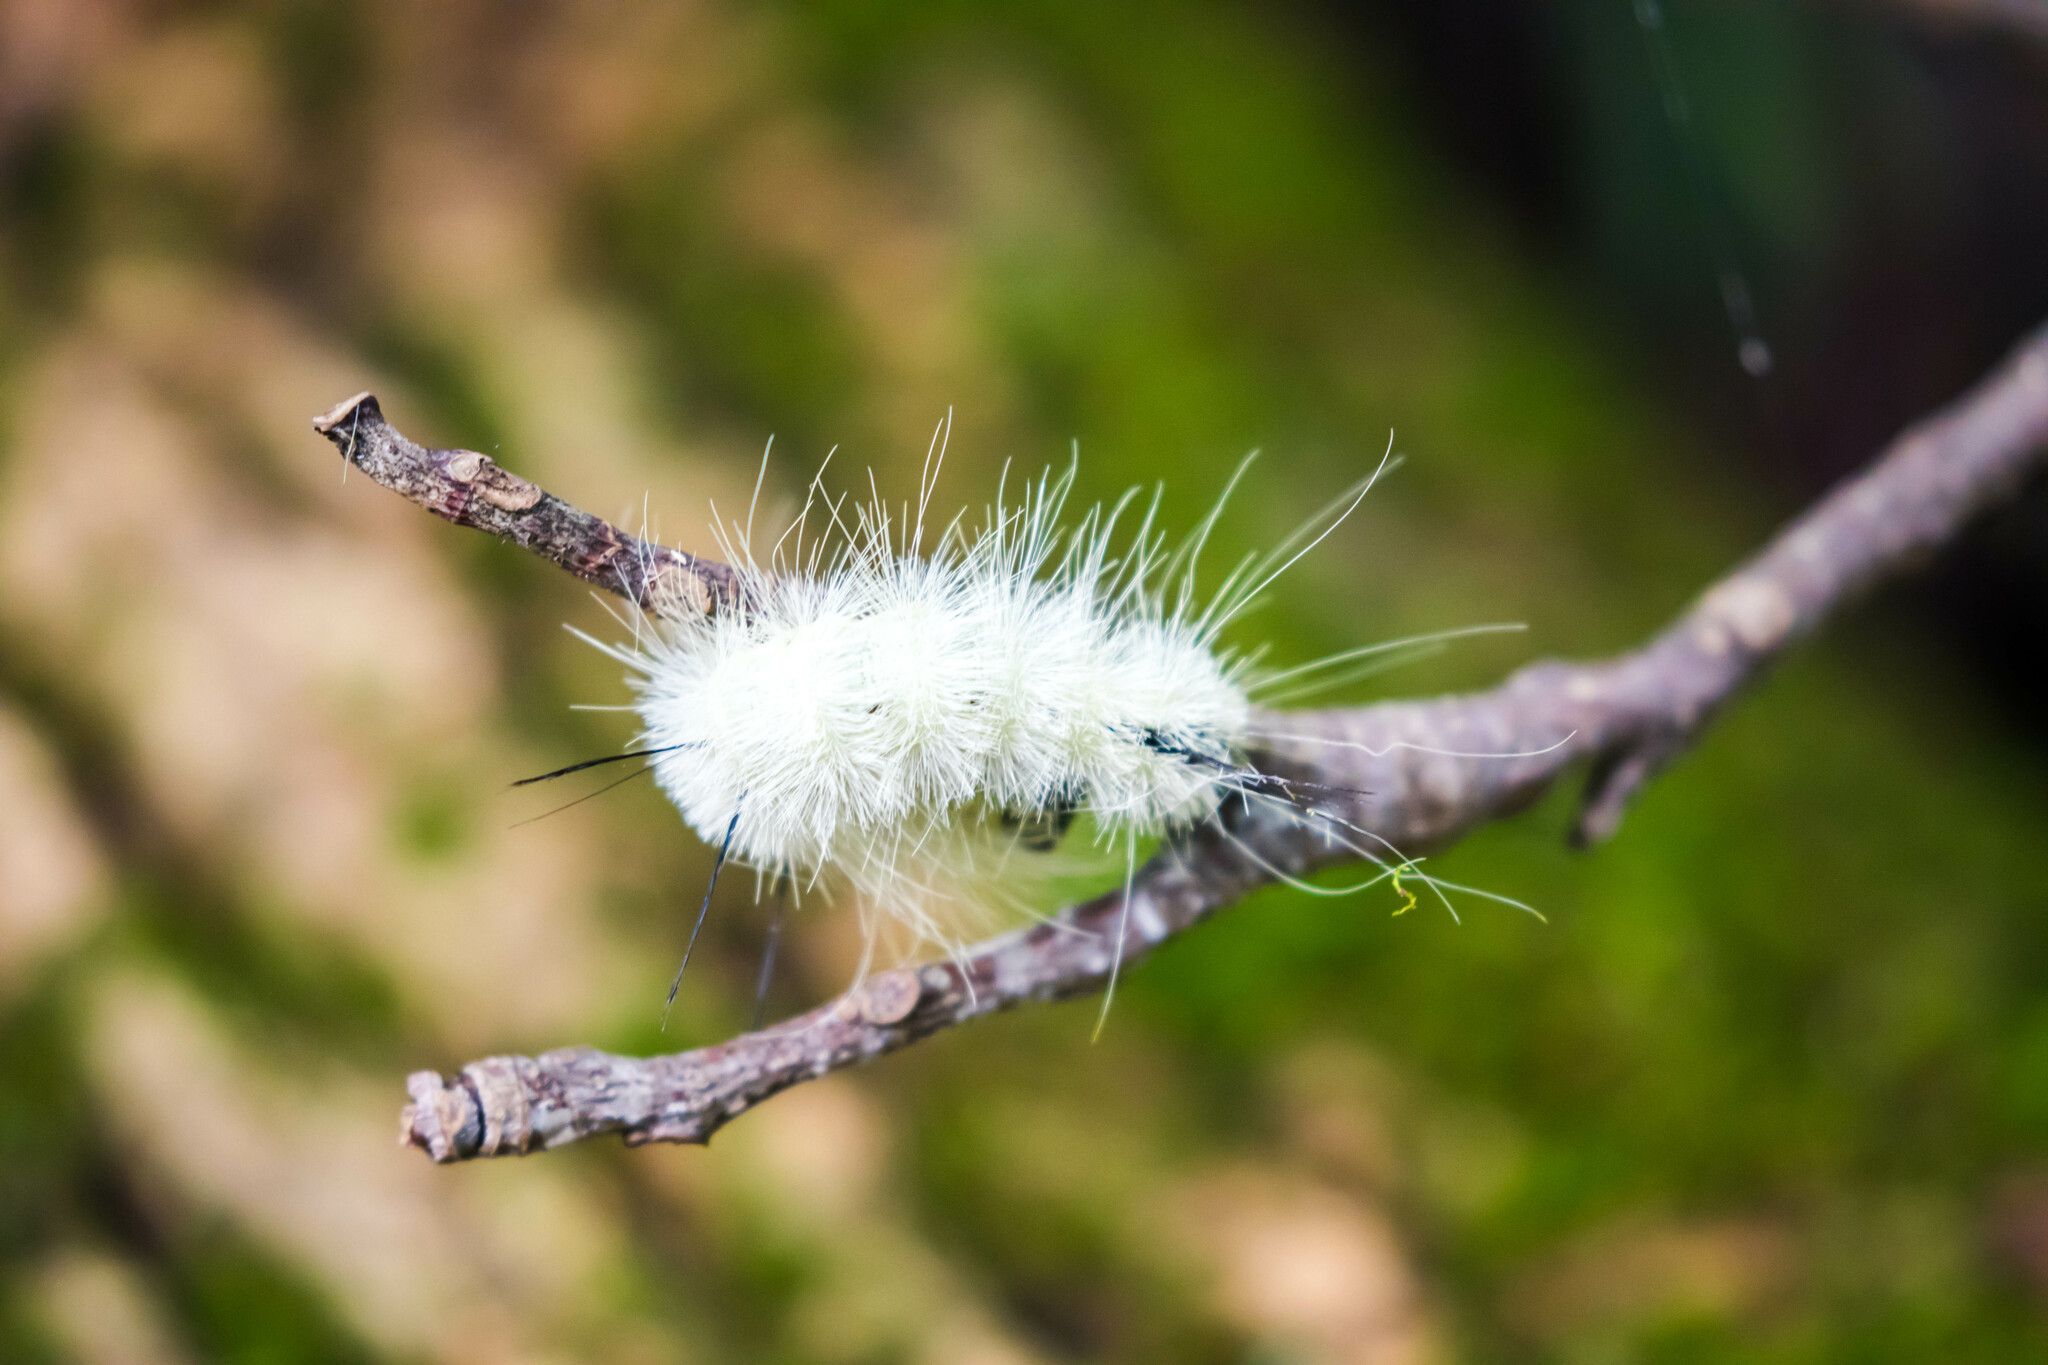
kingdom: Animalia
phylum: Arthropoda
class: Insecta
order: Lepidoptera
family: Noctuidae
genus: Acronicta
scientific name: Acronicta americana
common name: American dagger
